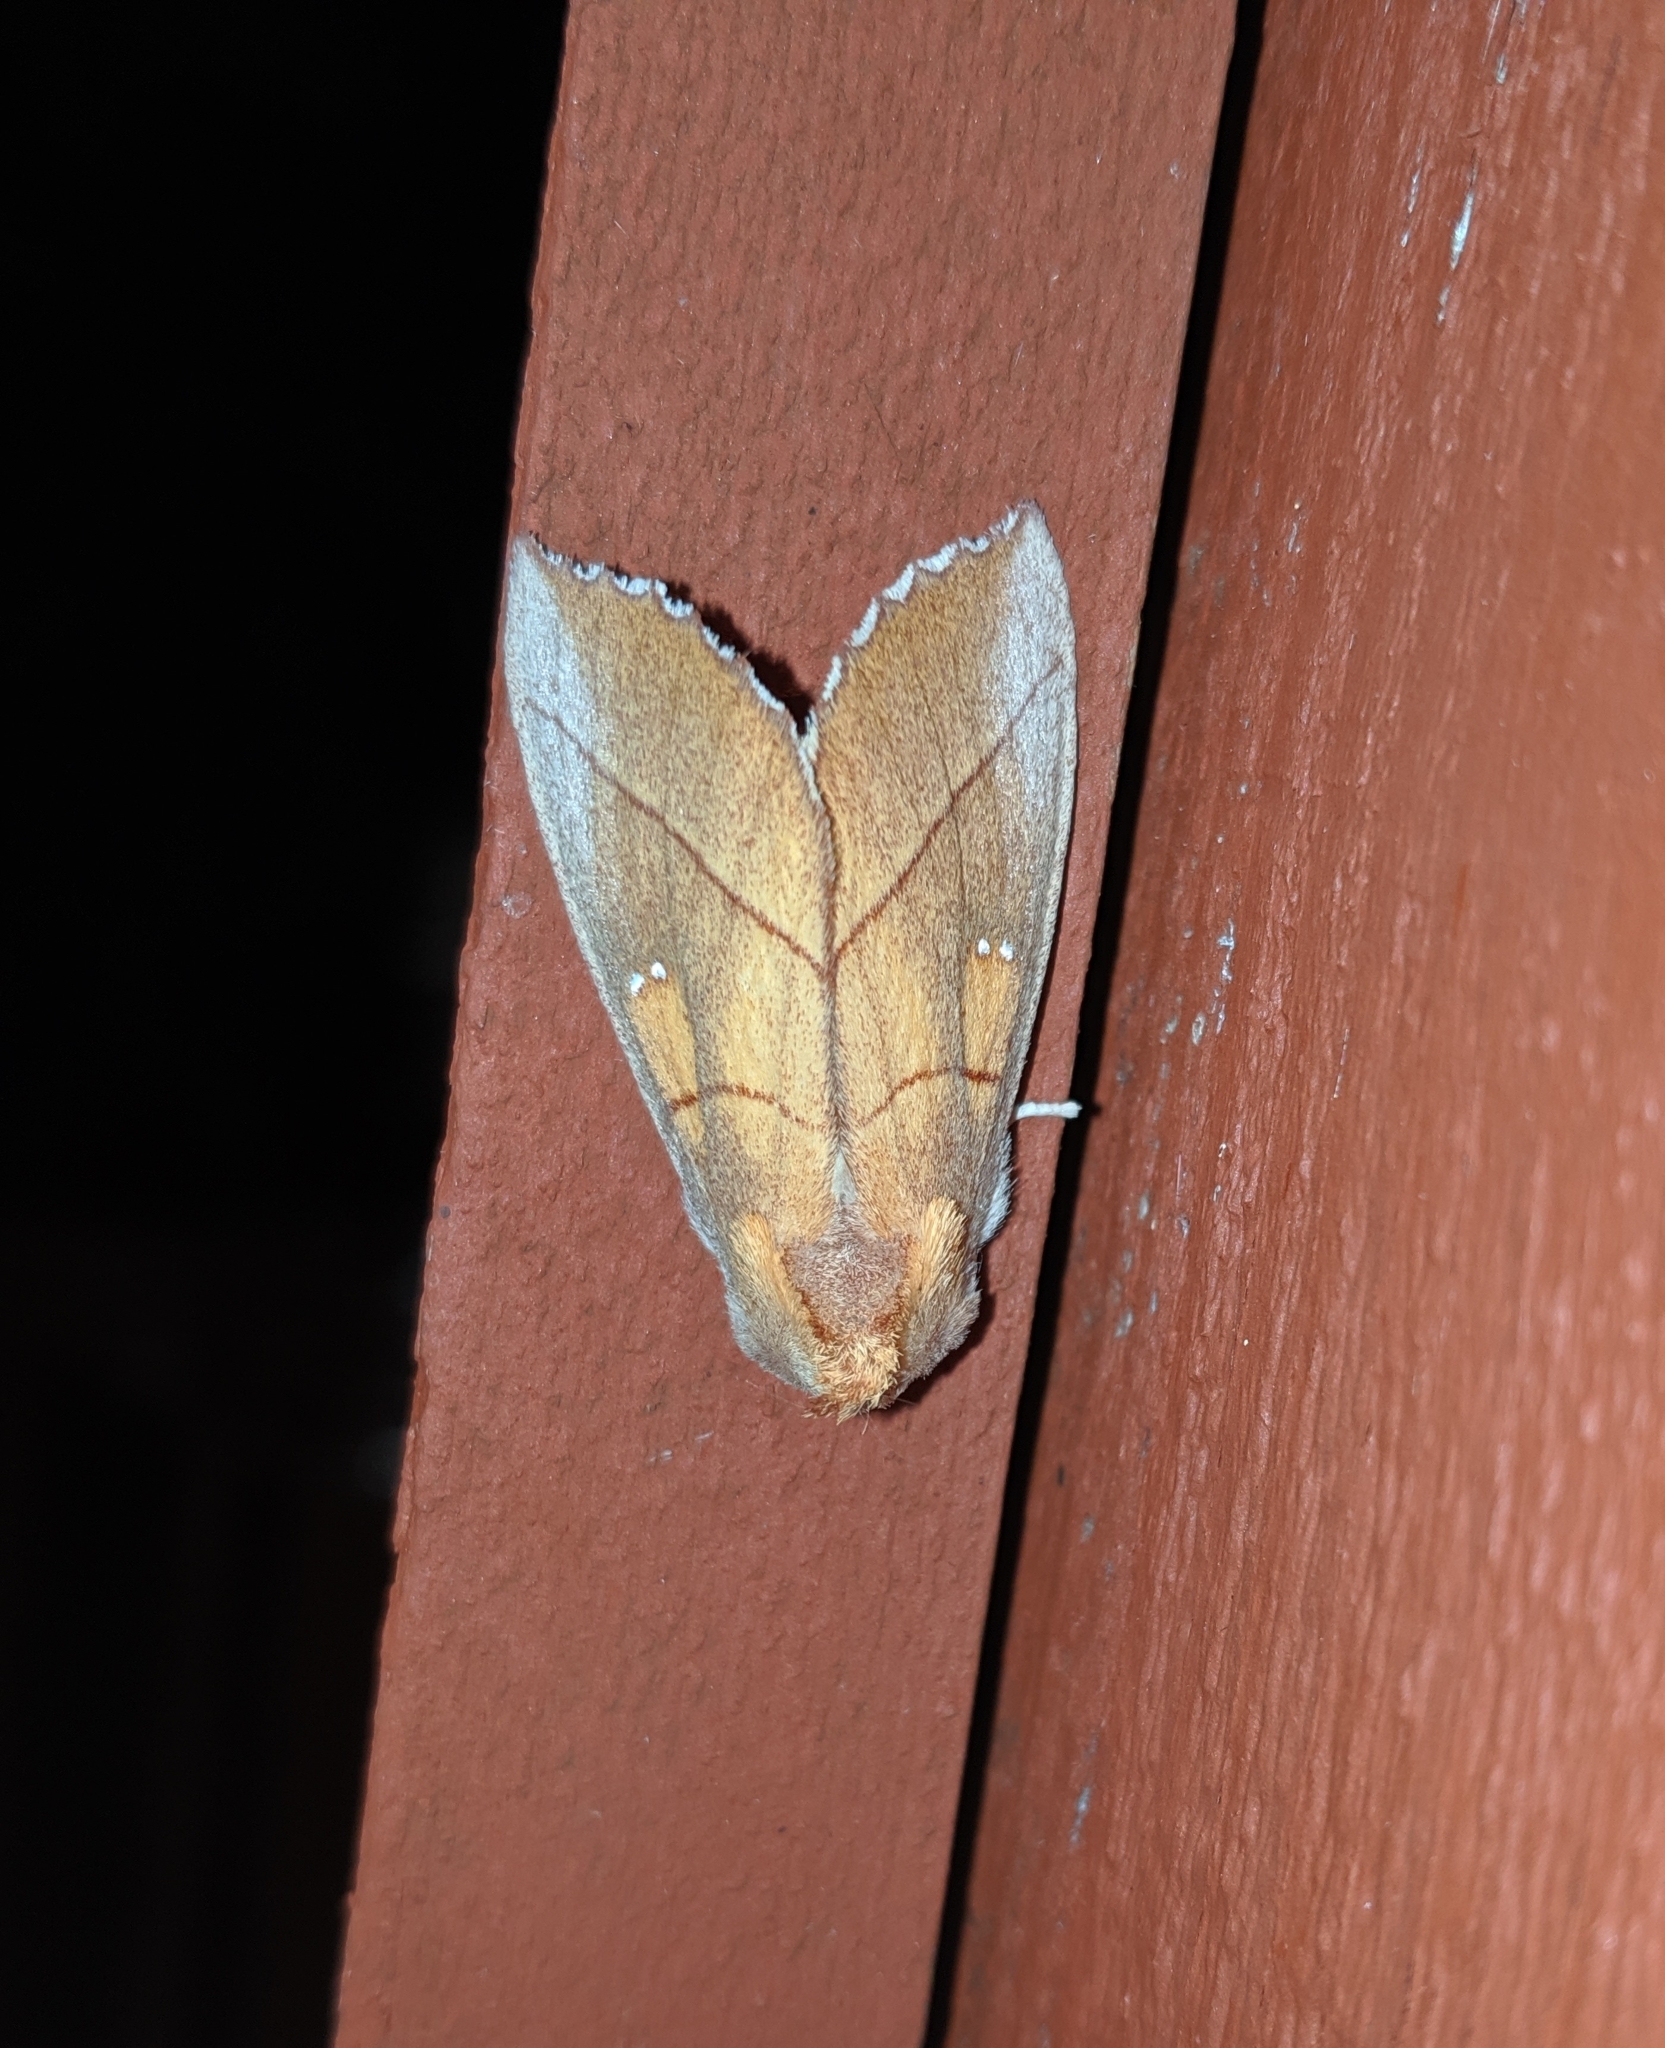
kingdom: Animalia
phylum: Arthropoda
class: Insecta
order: Lepidoptera
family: Notodontidae
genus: Nadata
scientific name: Nadata gibbosa
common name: White-dotted prominent
